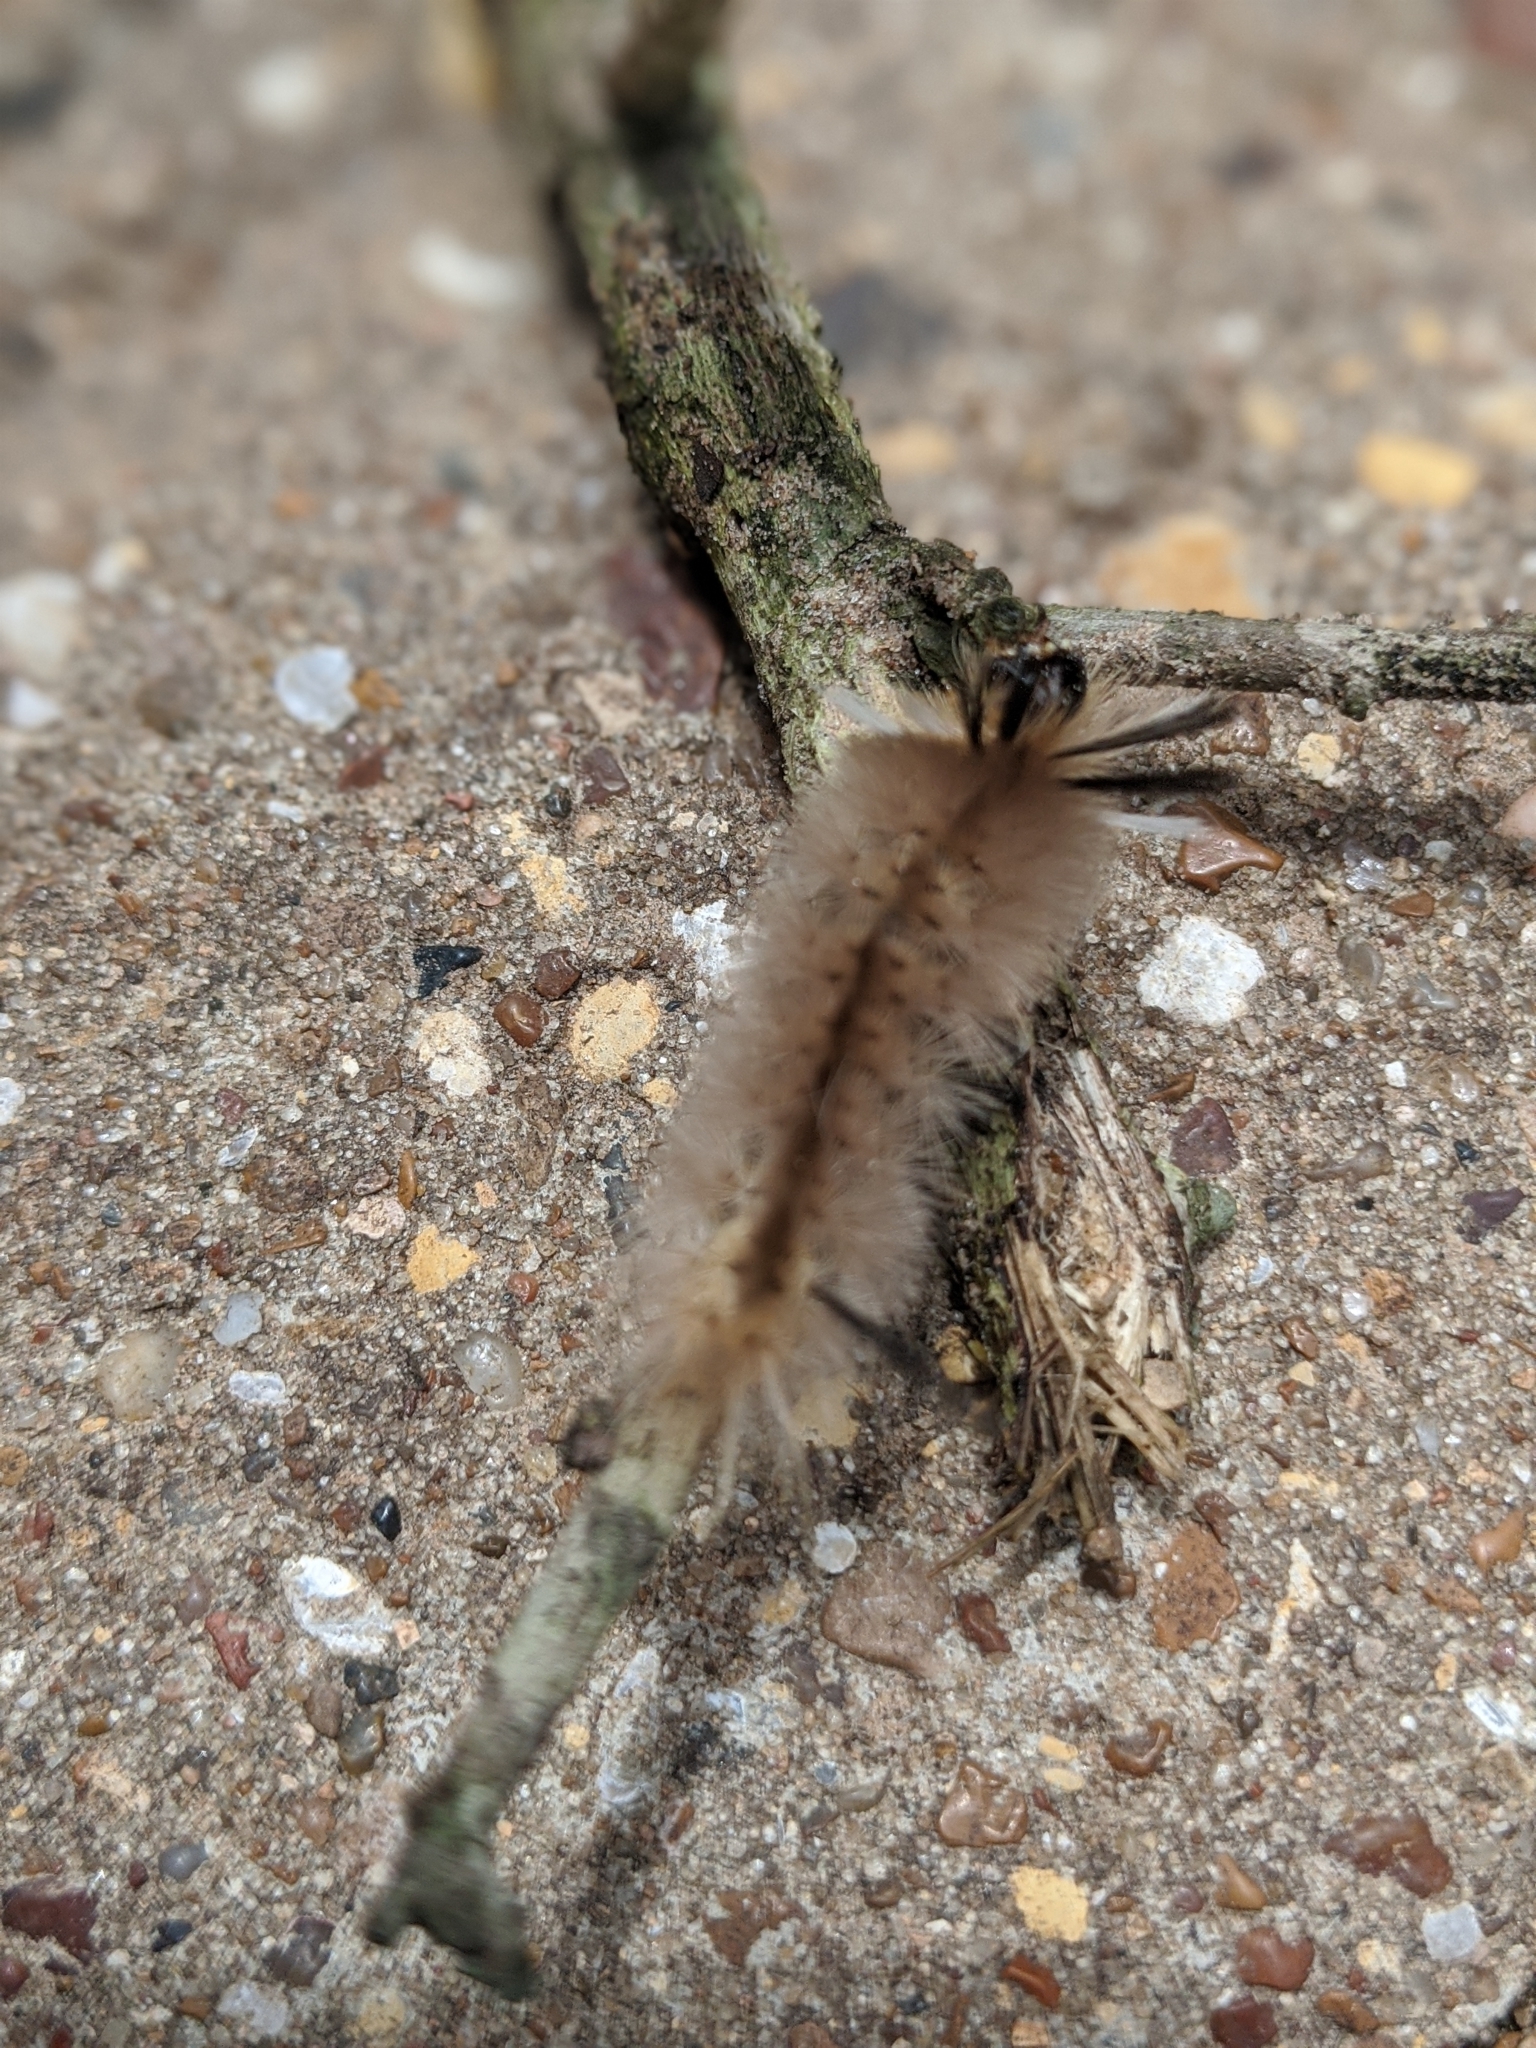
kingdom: Animalia
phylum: Arthropoda
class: Insecta
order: Lepidoptera
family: Erebidae
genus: Halysidota
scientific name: Halysidota tessellaris
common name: Banded tussock moth
